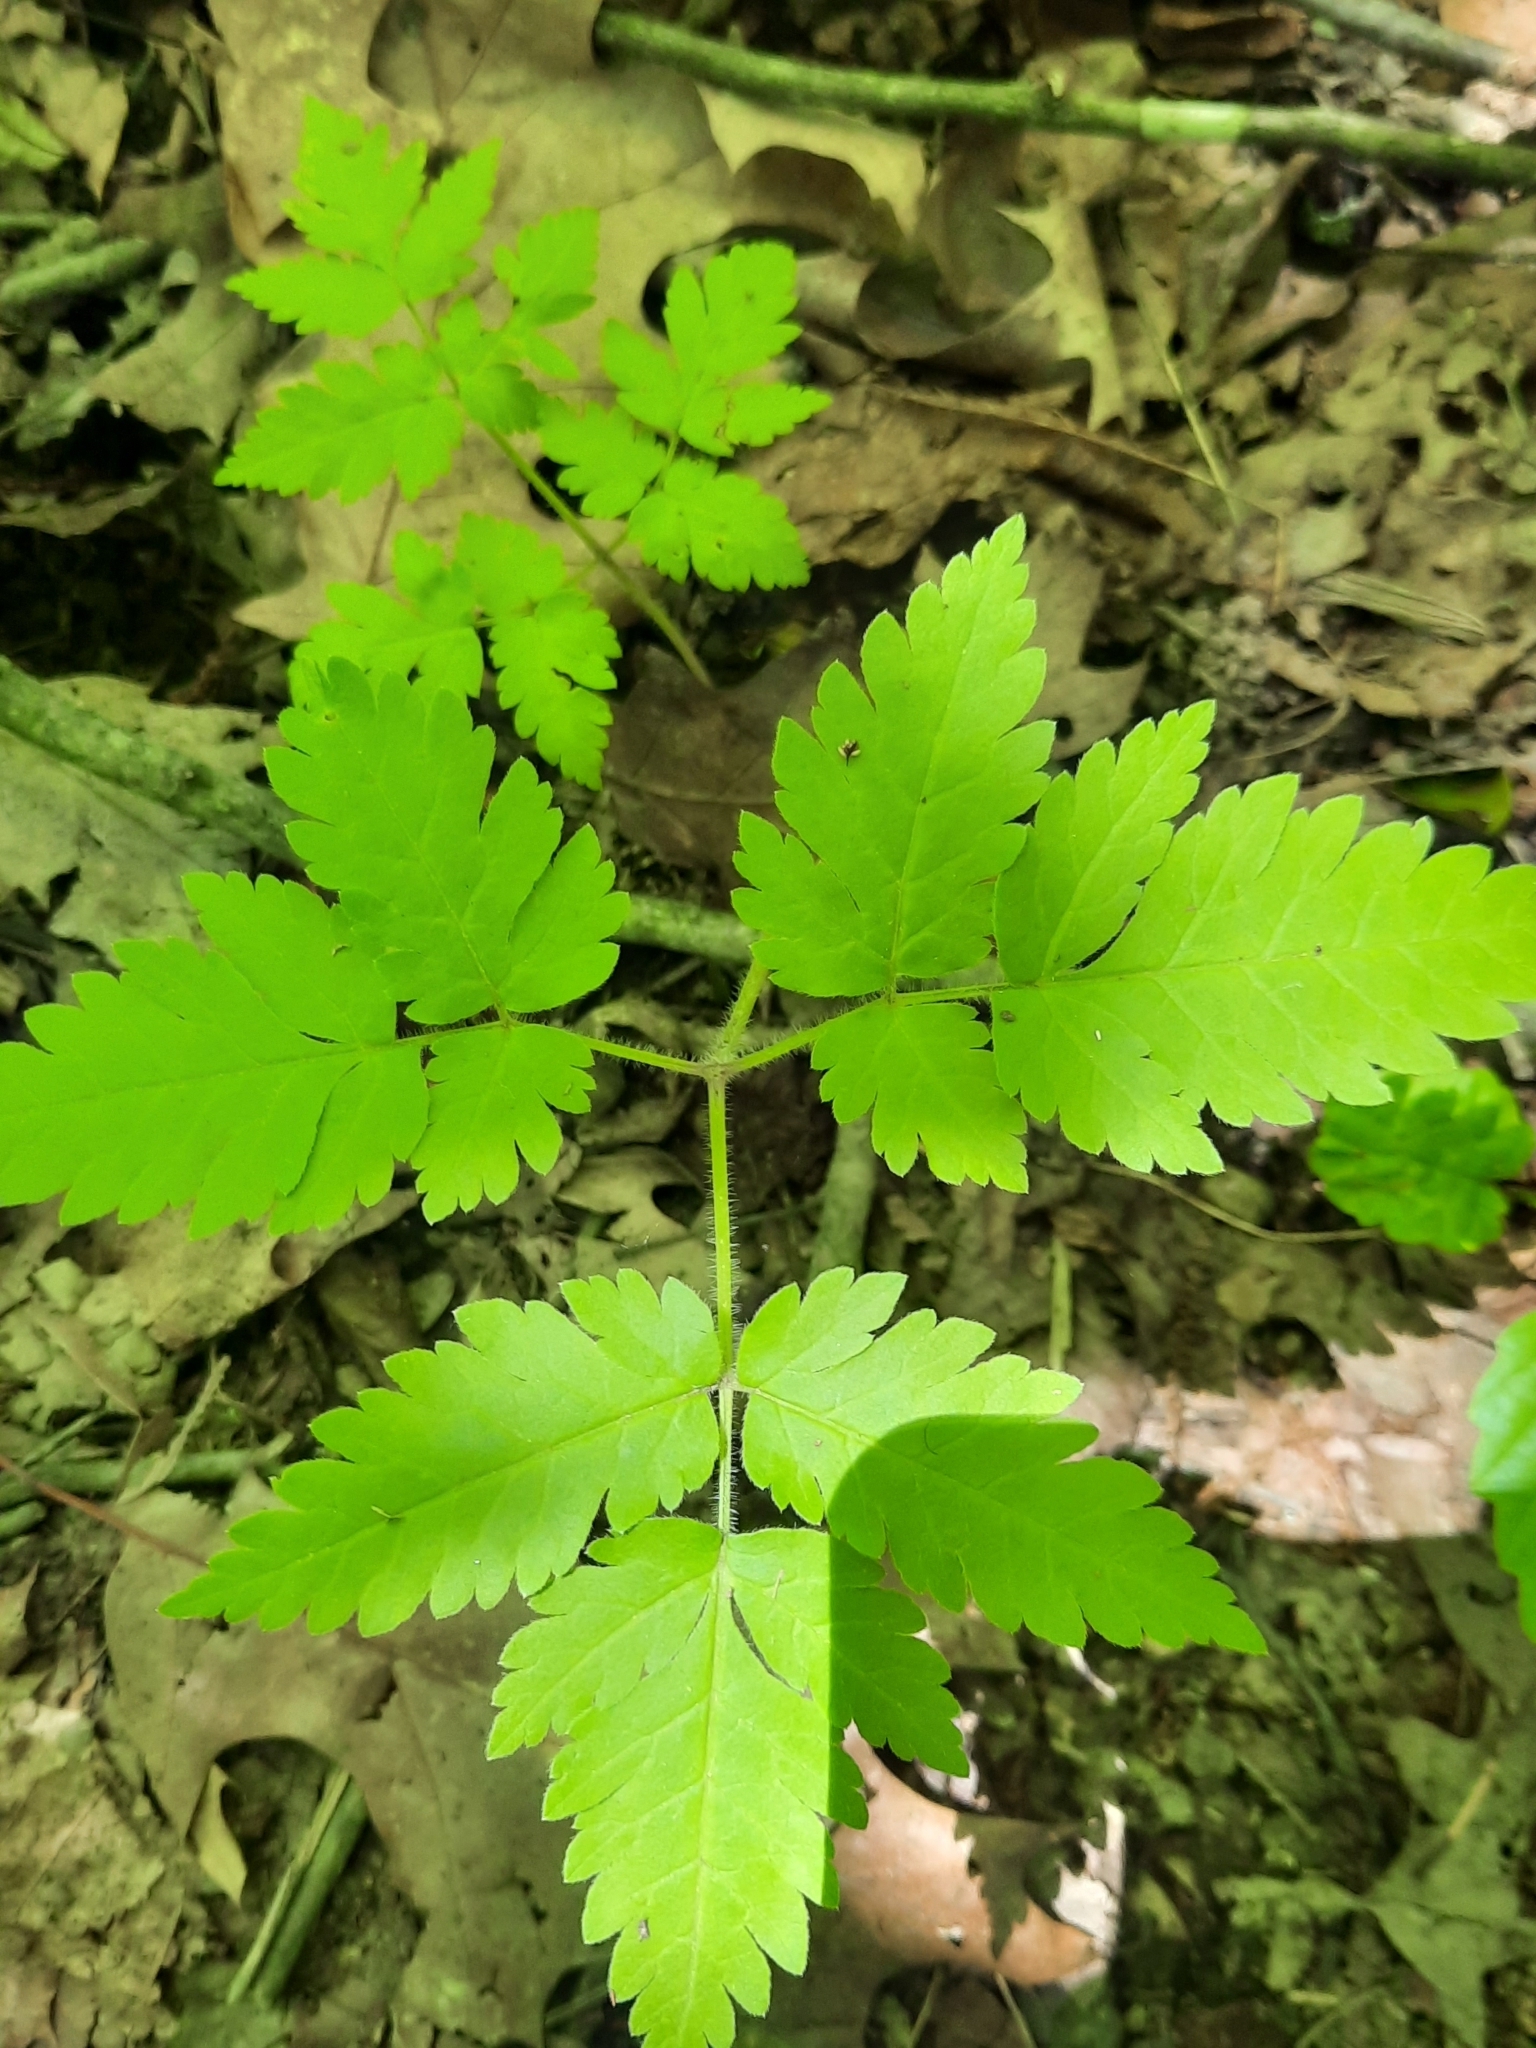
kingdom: Plantae
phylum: Tracheophyta
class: Magnoliopsida
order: Apiales
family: Apiaceae
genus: Osmorhiza
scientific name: Osmorhiza claytonii
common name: Hairy sweet cicely
